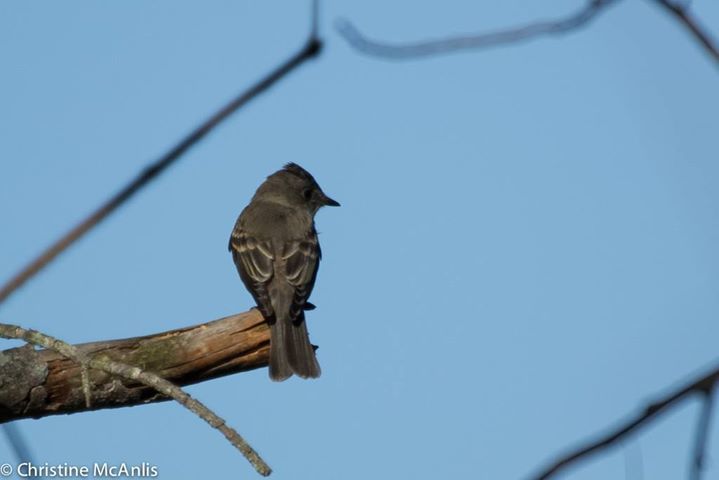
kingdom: Animalia
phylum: Chordata
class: Aves
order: Passeriformes
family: Tyrannidae
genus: Contopus
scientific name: Contopus virens
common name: Eastern wood-pewee
